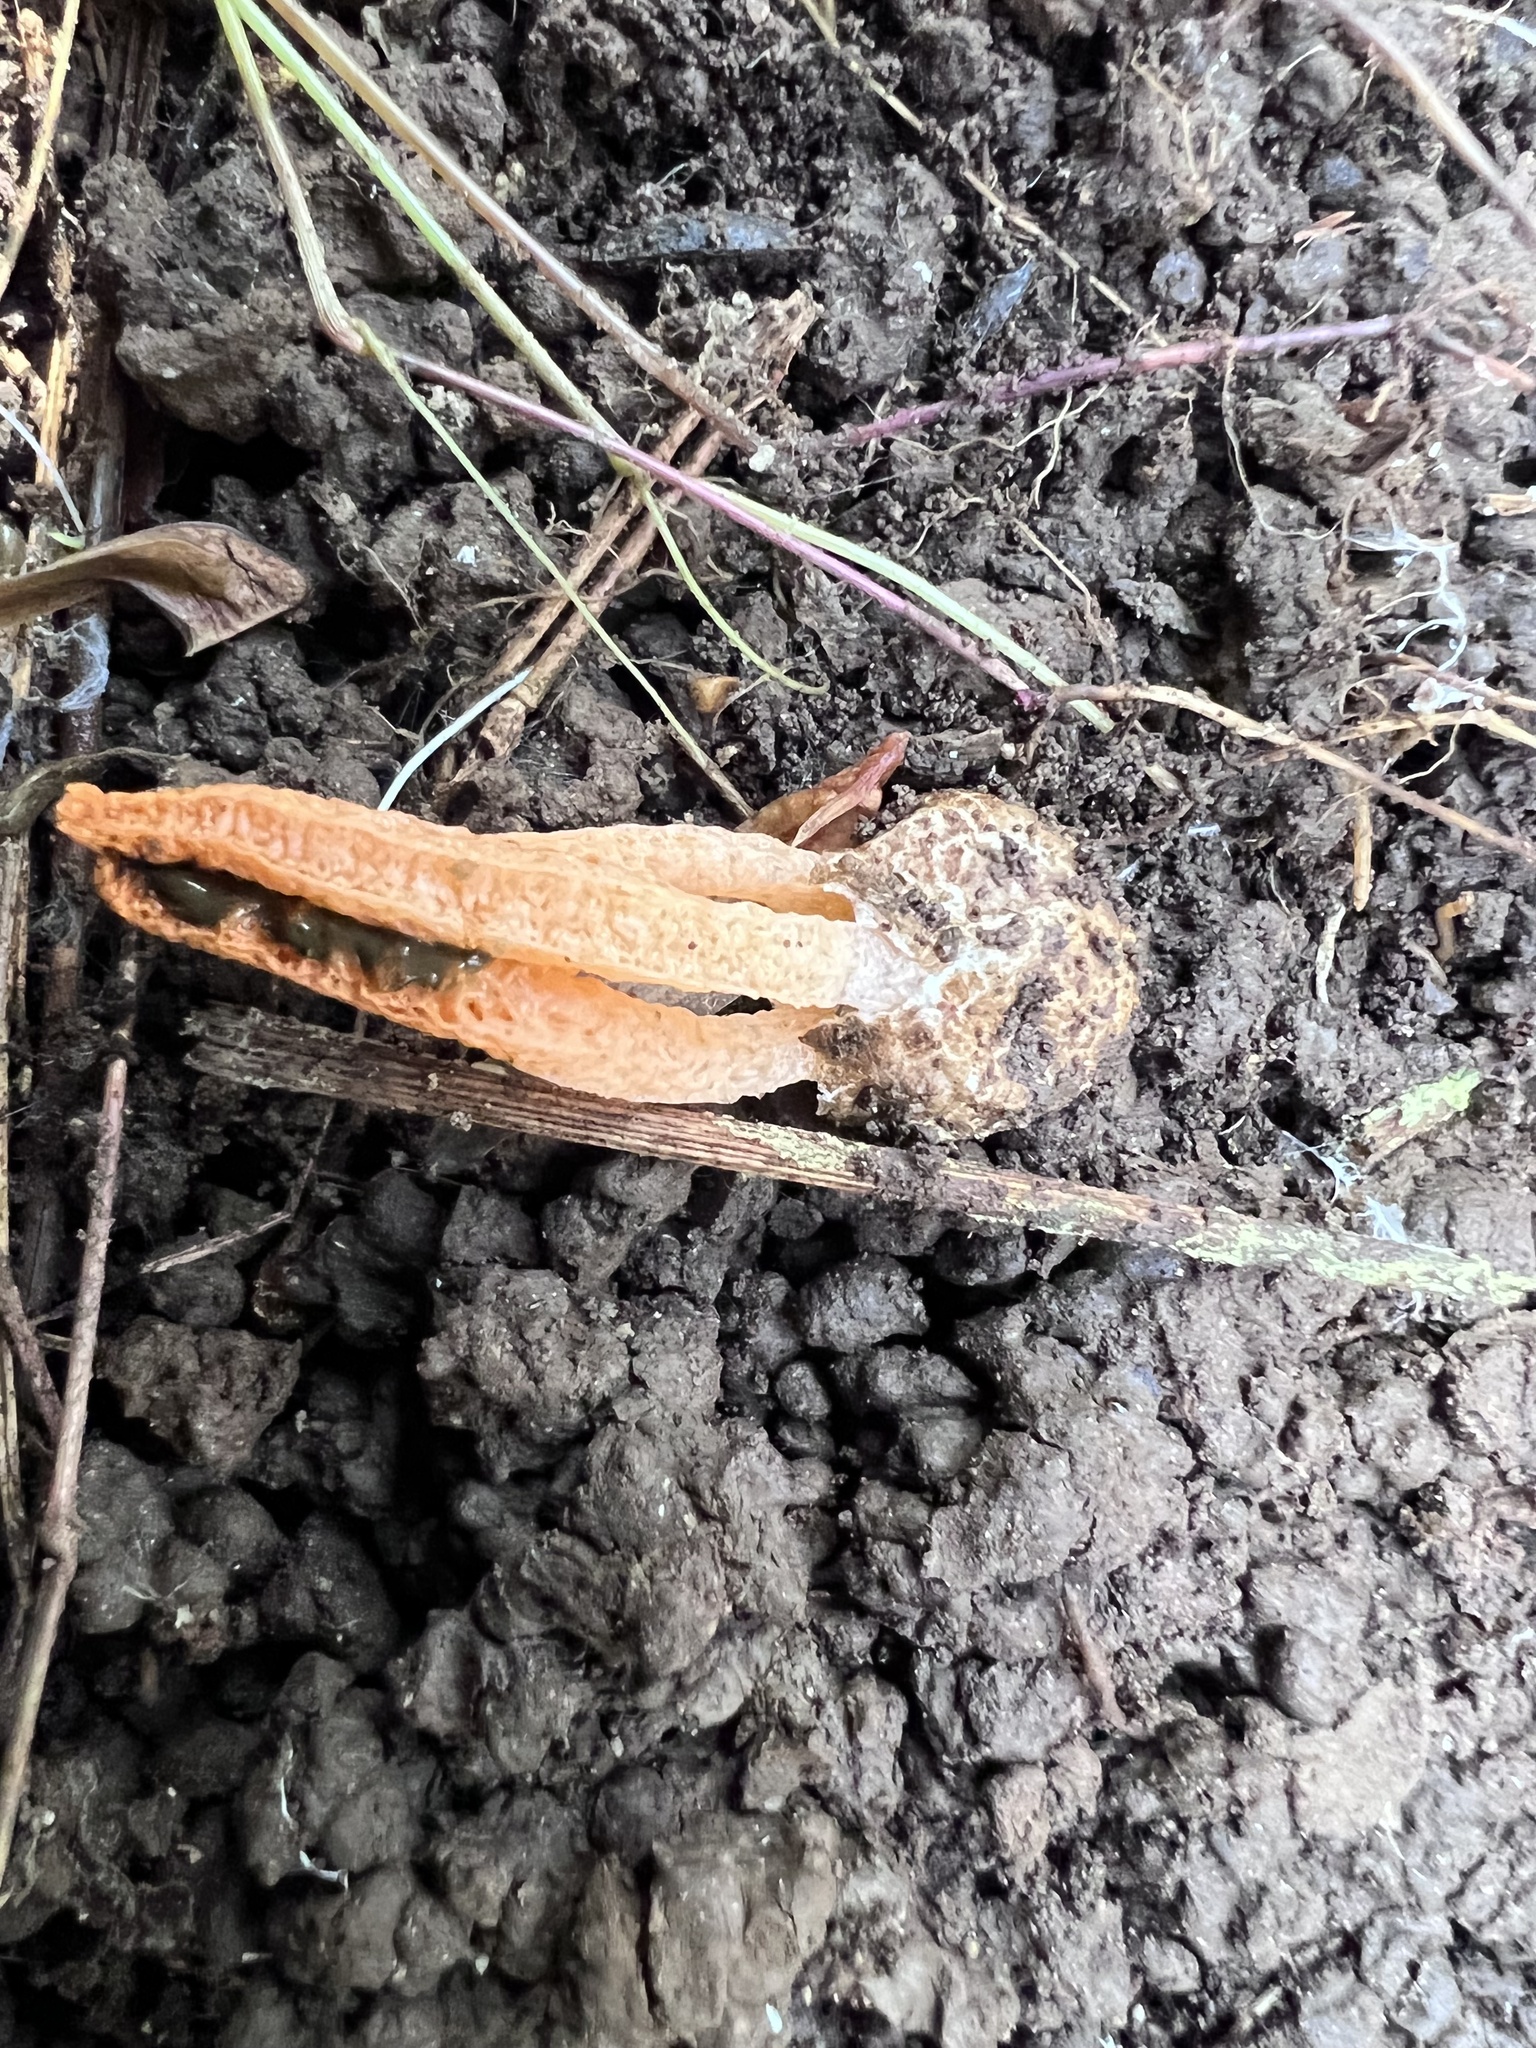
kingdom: Fungi
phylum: Basidiomycota
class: Agaricomycetes
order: Phallales
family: Phallaceae
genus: Pseudocolus
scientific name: Pseudocolus fusiformis
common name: Stinky squid
